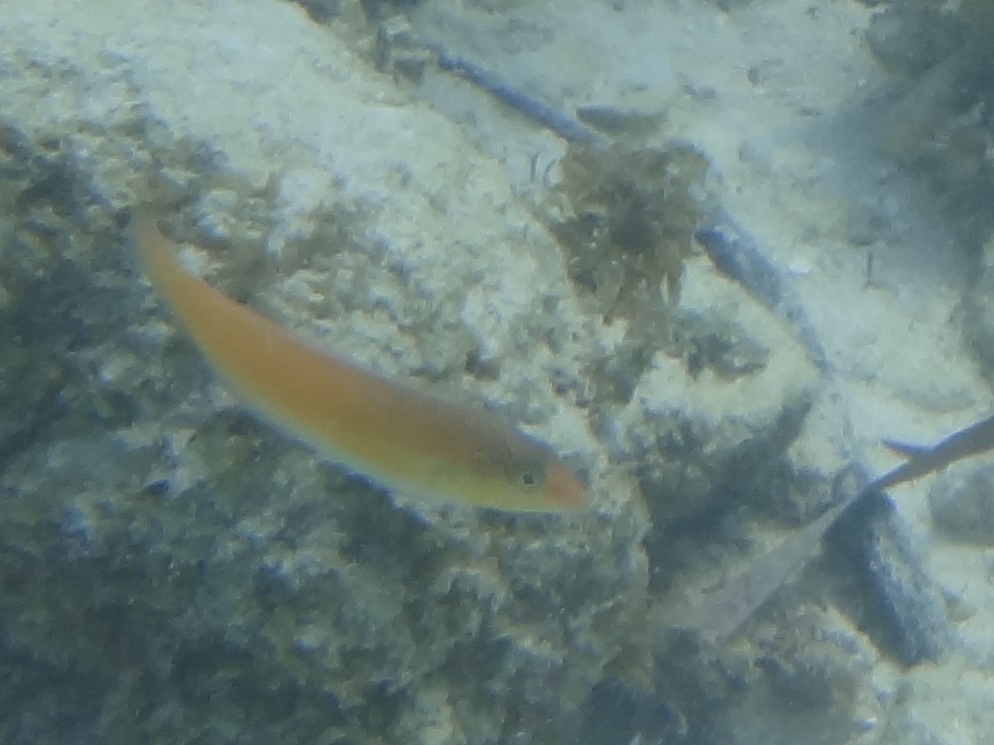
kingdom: Animalia
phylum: Chordata
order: Perciformes
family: Labridae
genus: Halichoeres
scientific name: Halichoeres garnoti
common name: Yellowhead wrasse
